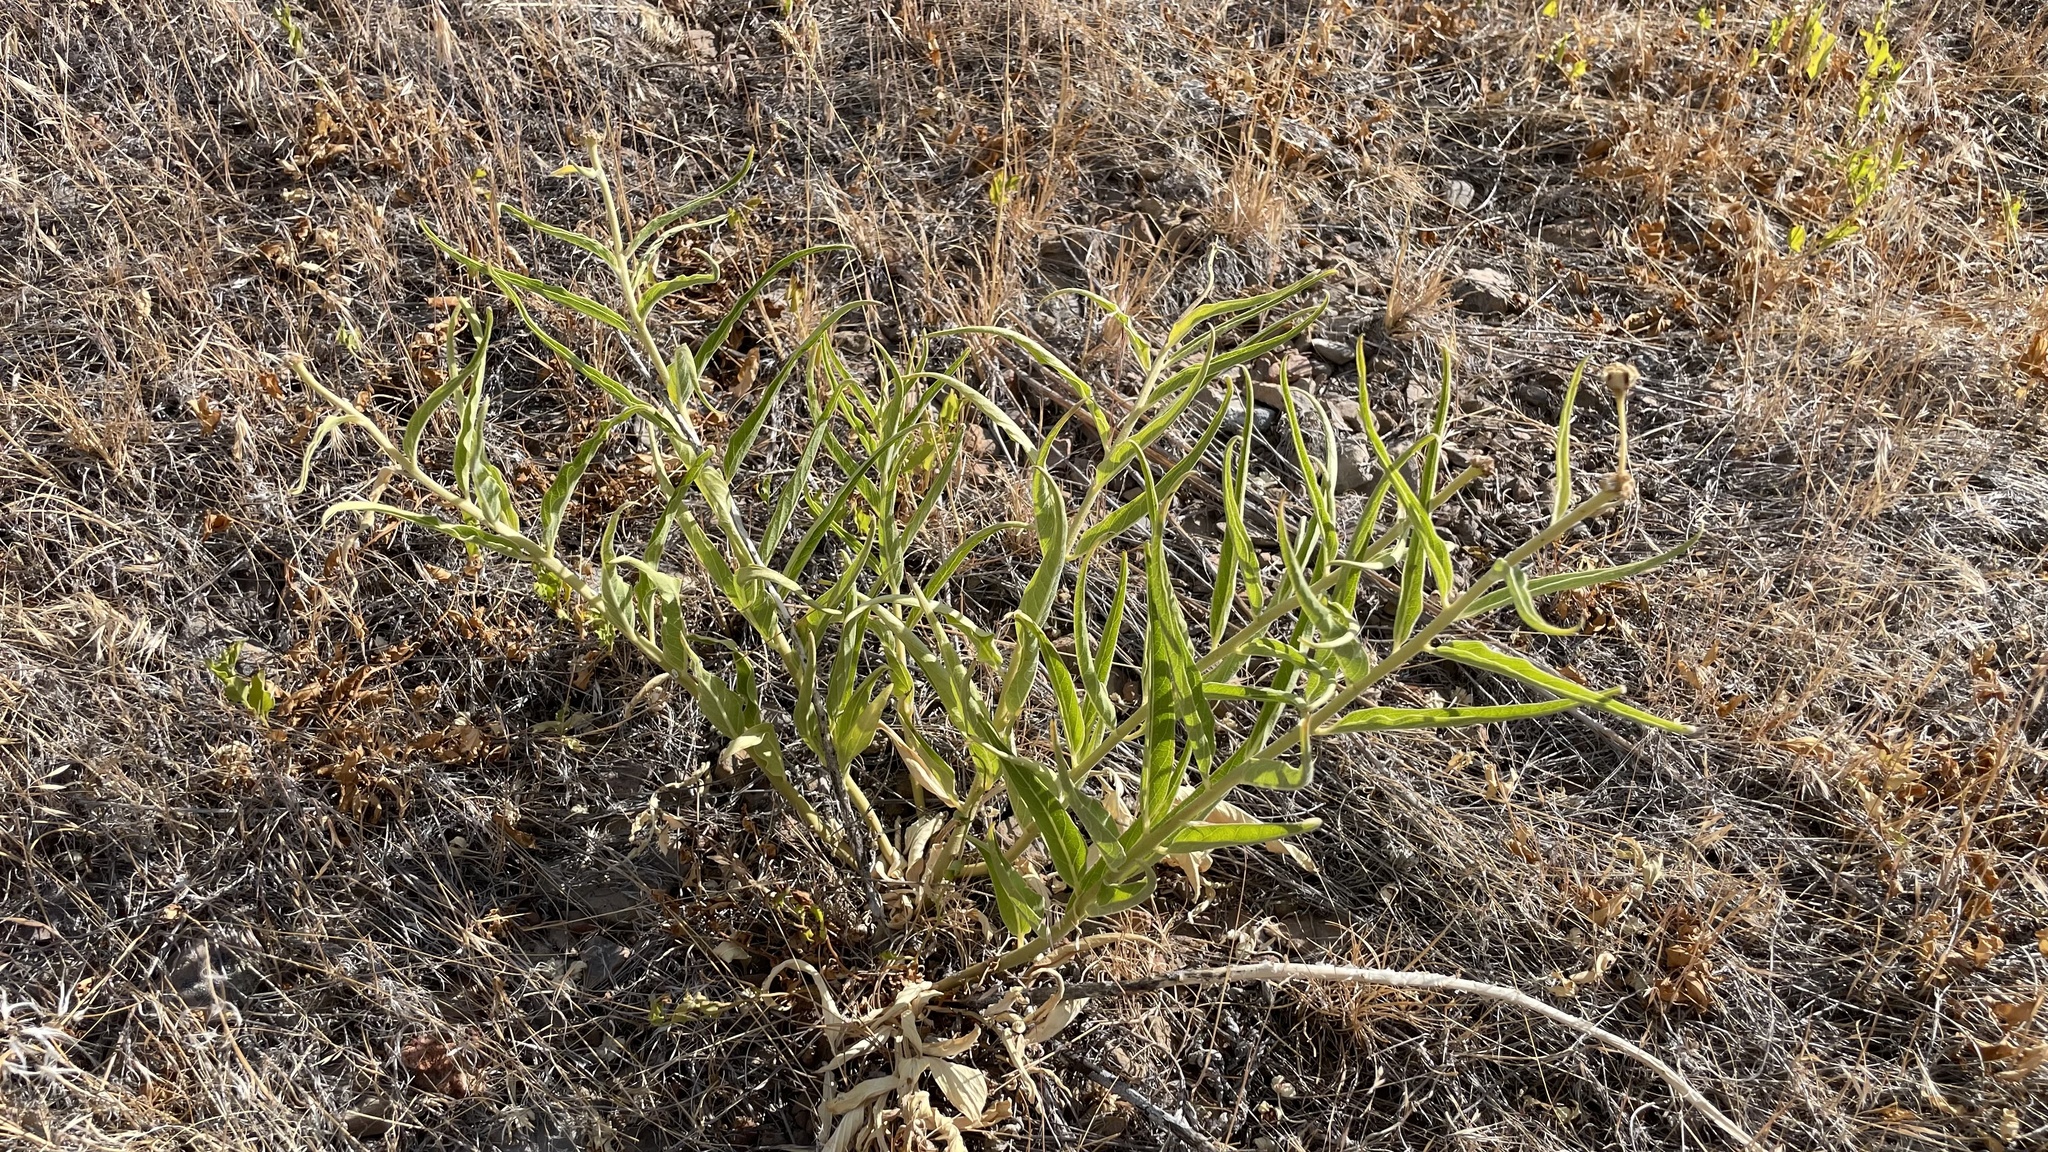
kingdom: Plantae
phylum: Tracheophyta
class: Magnoliopsida
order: Gentianales
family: Apocynaceae
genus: Asclepias
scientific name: Asclepias asperula
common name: Antelope horns
